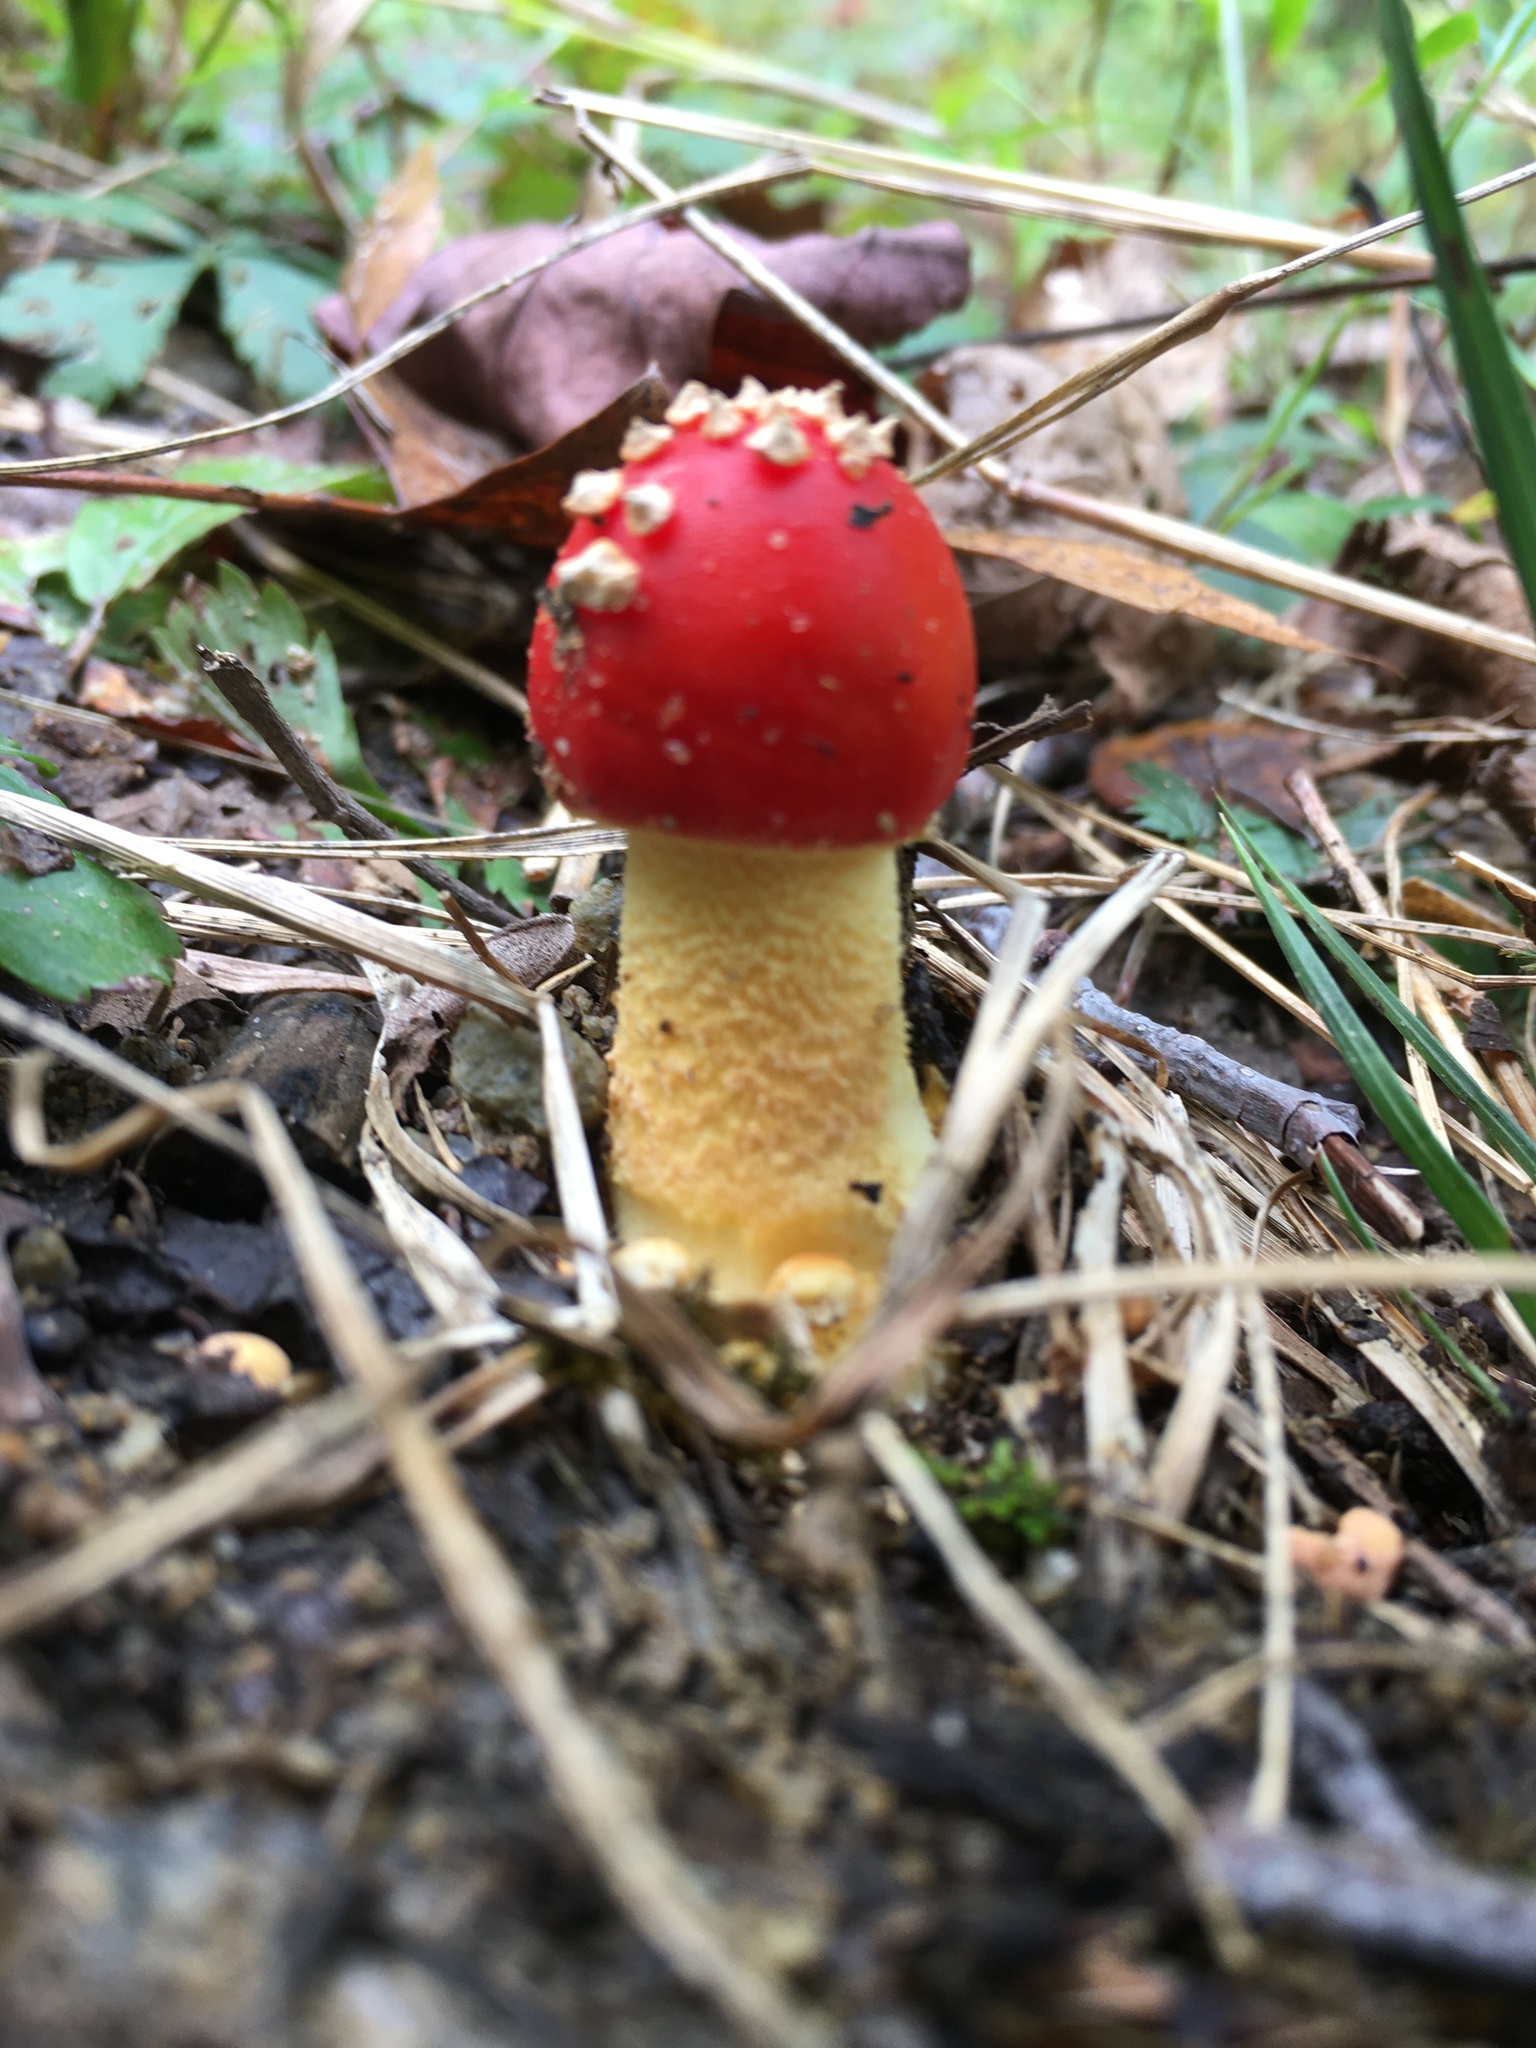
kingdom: Fungi
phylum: Basidiomycota
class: Agaricomycetes
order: Agaricales
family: Amanitaceae
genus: Amanita
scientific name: Amanita parcivolvata
